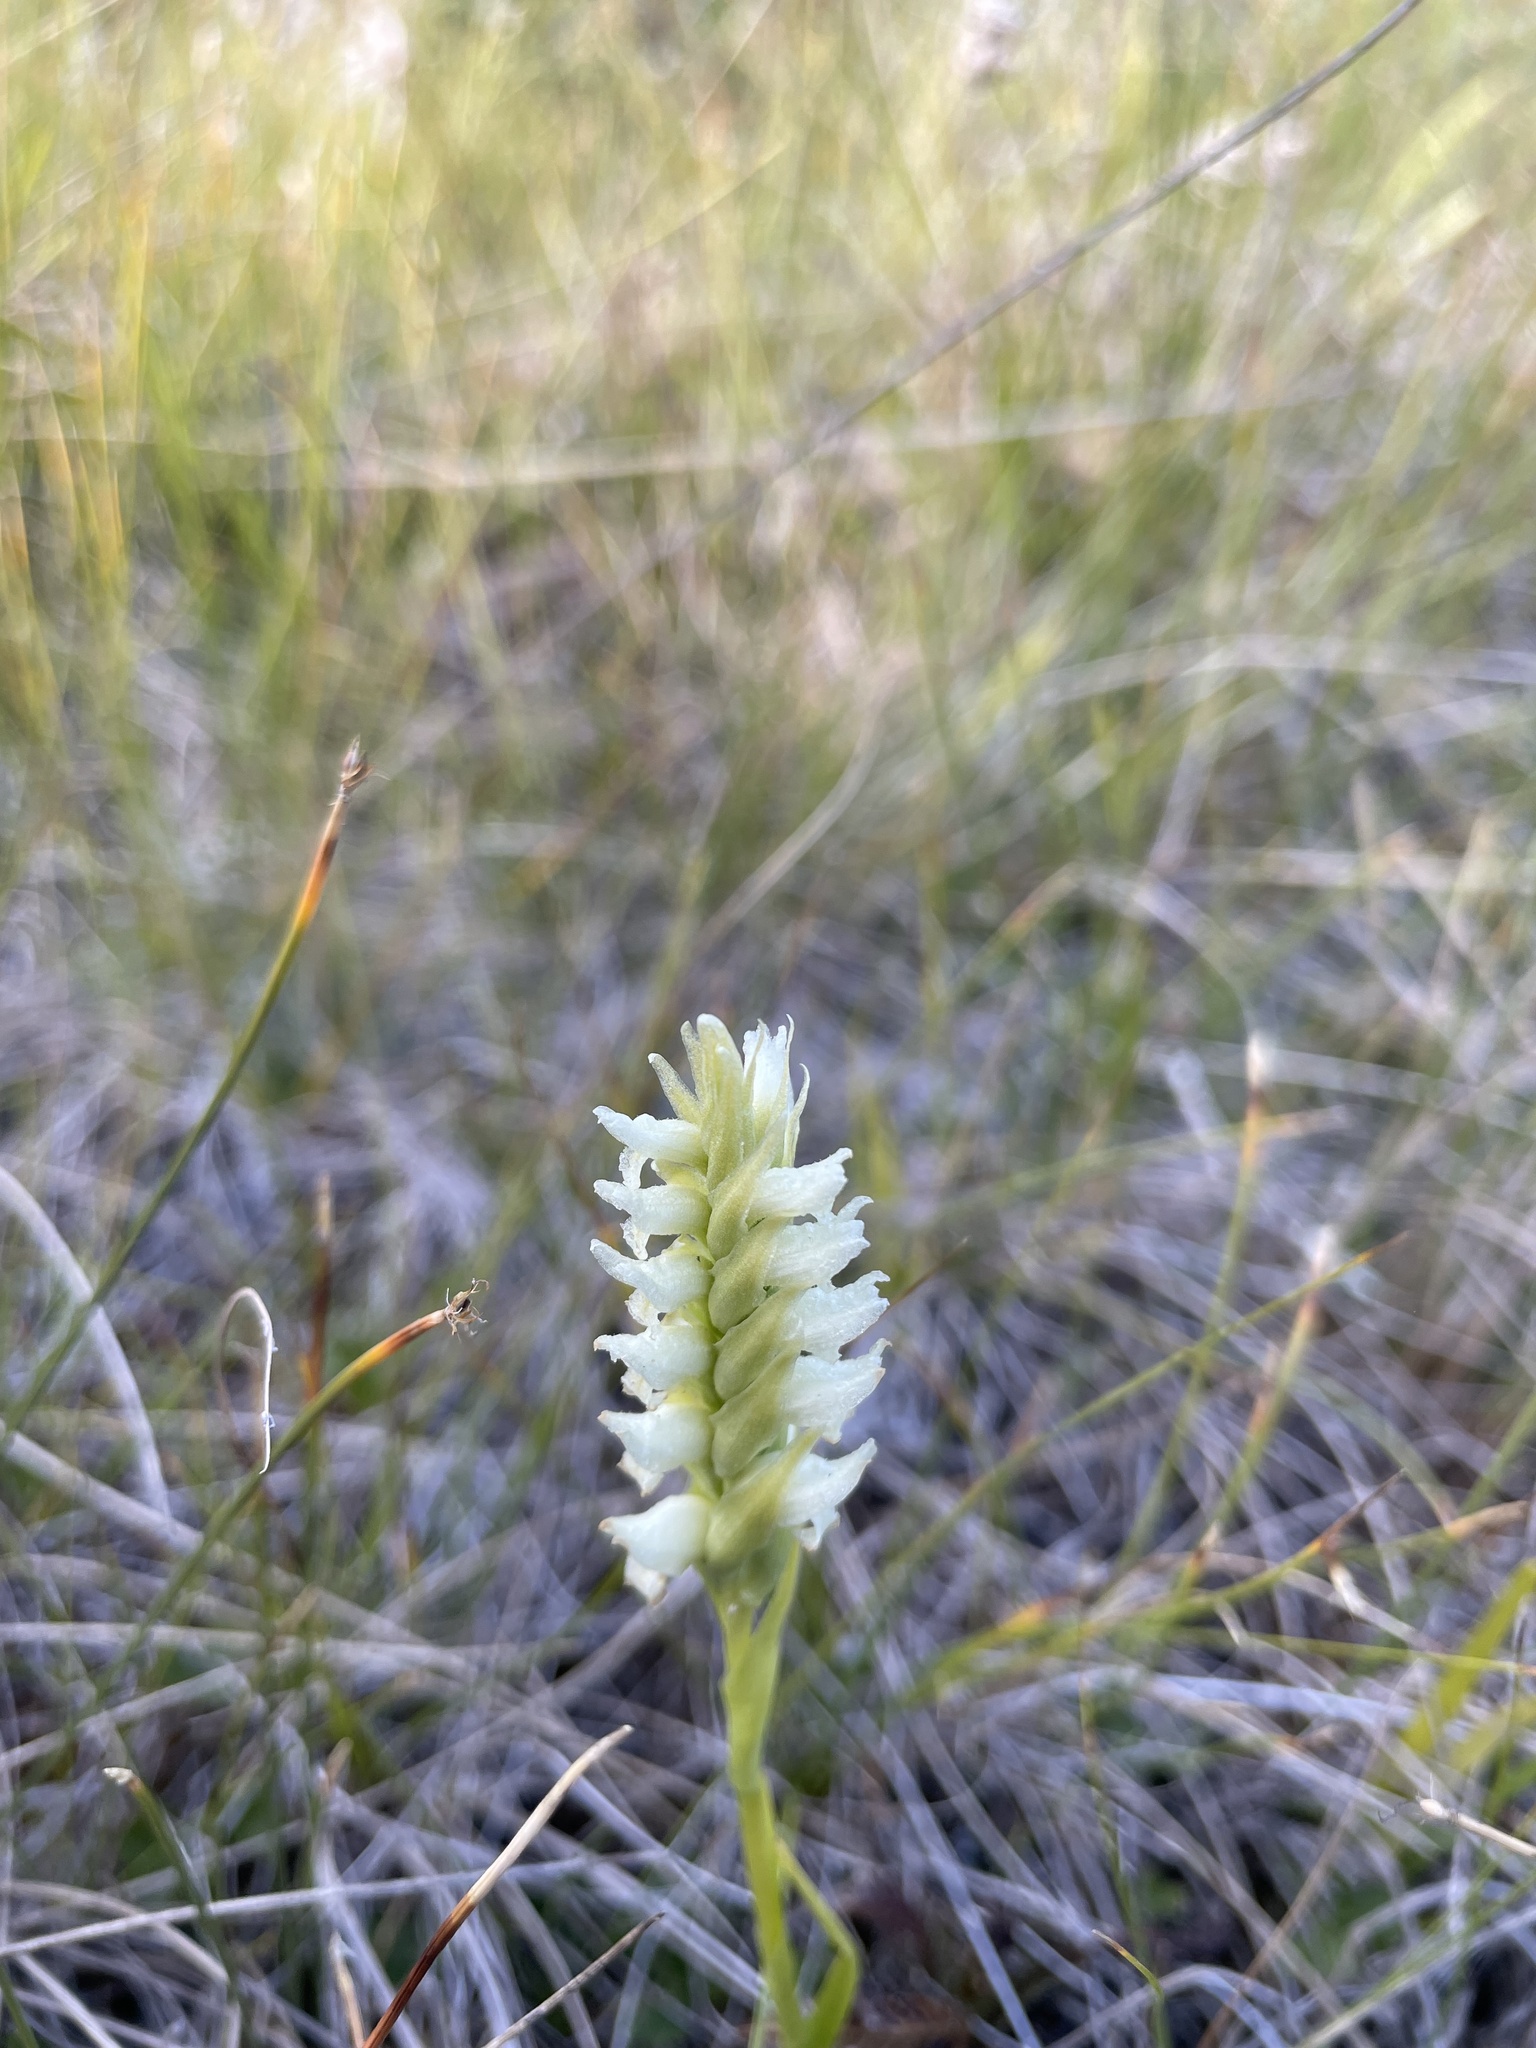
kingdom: Plantae
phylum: Tracheophyta
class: Liliopsida
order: Asparagales
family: Orchidaceae
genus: Spiranthes
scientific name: Spiranthes romanzoffiana
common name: Irish lady's-tresses
